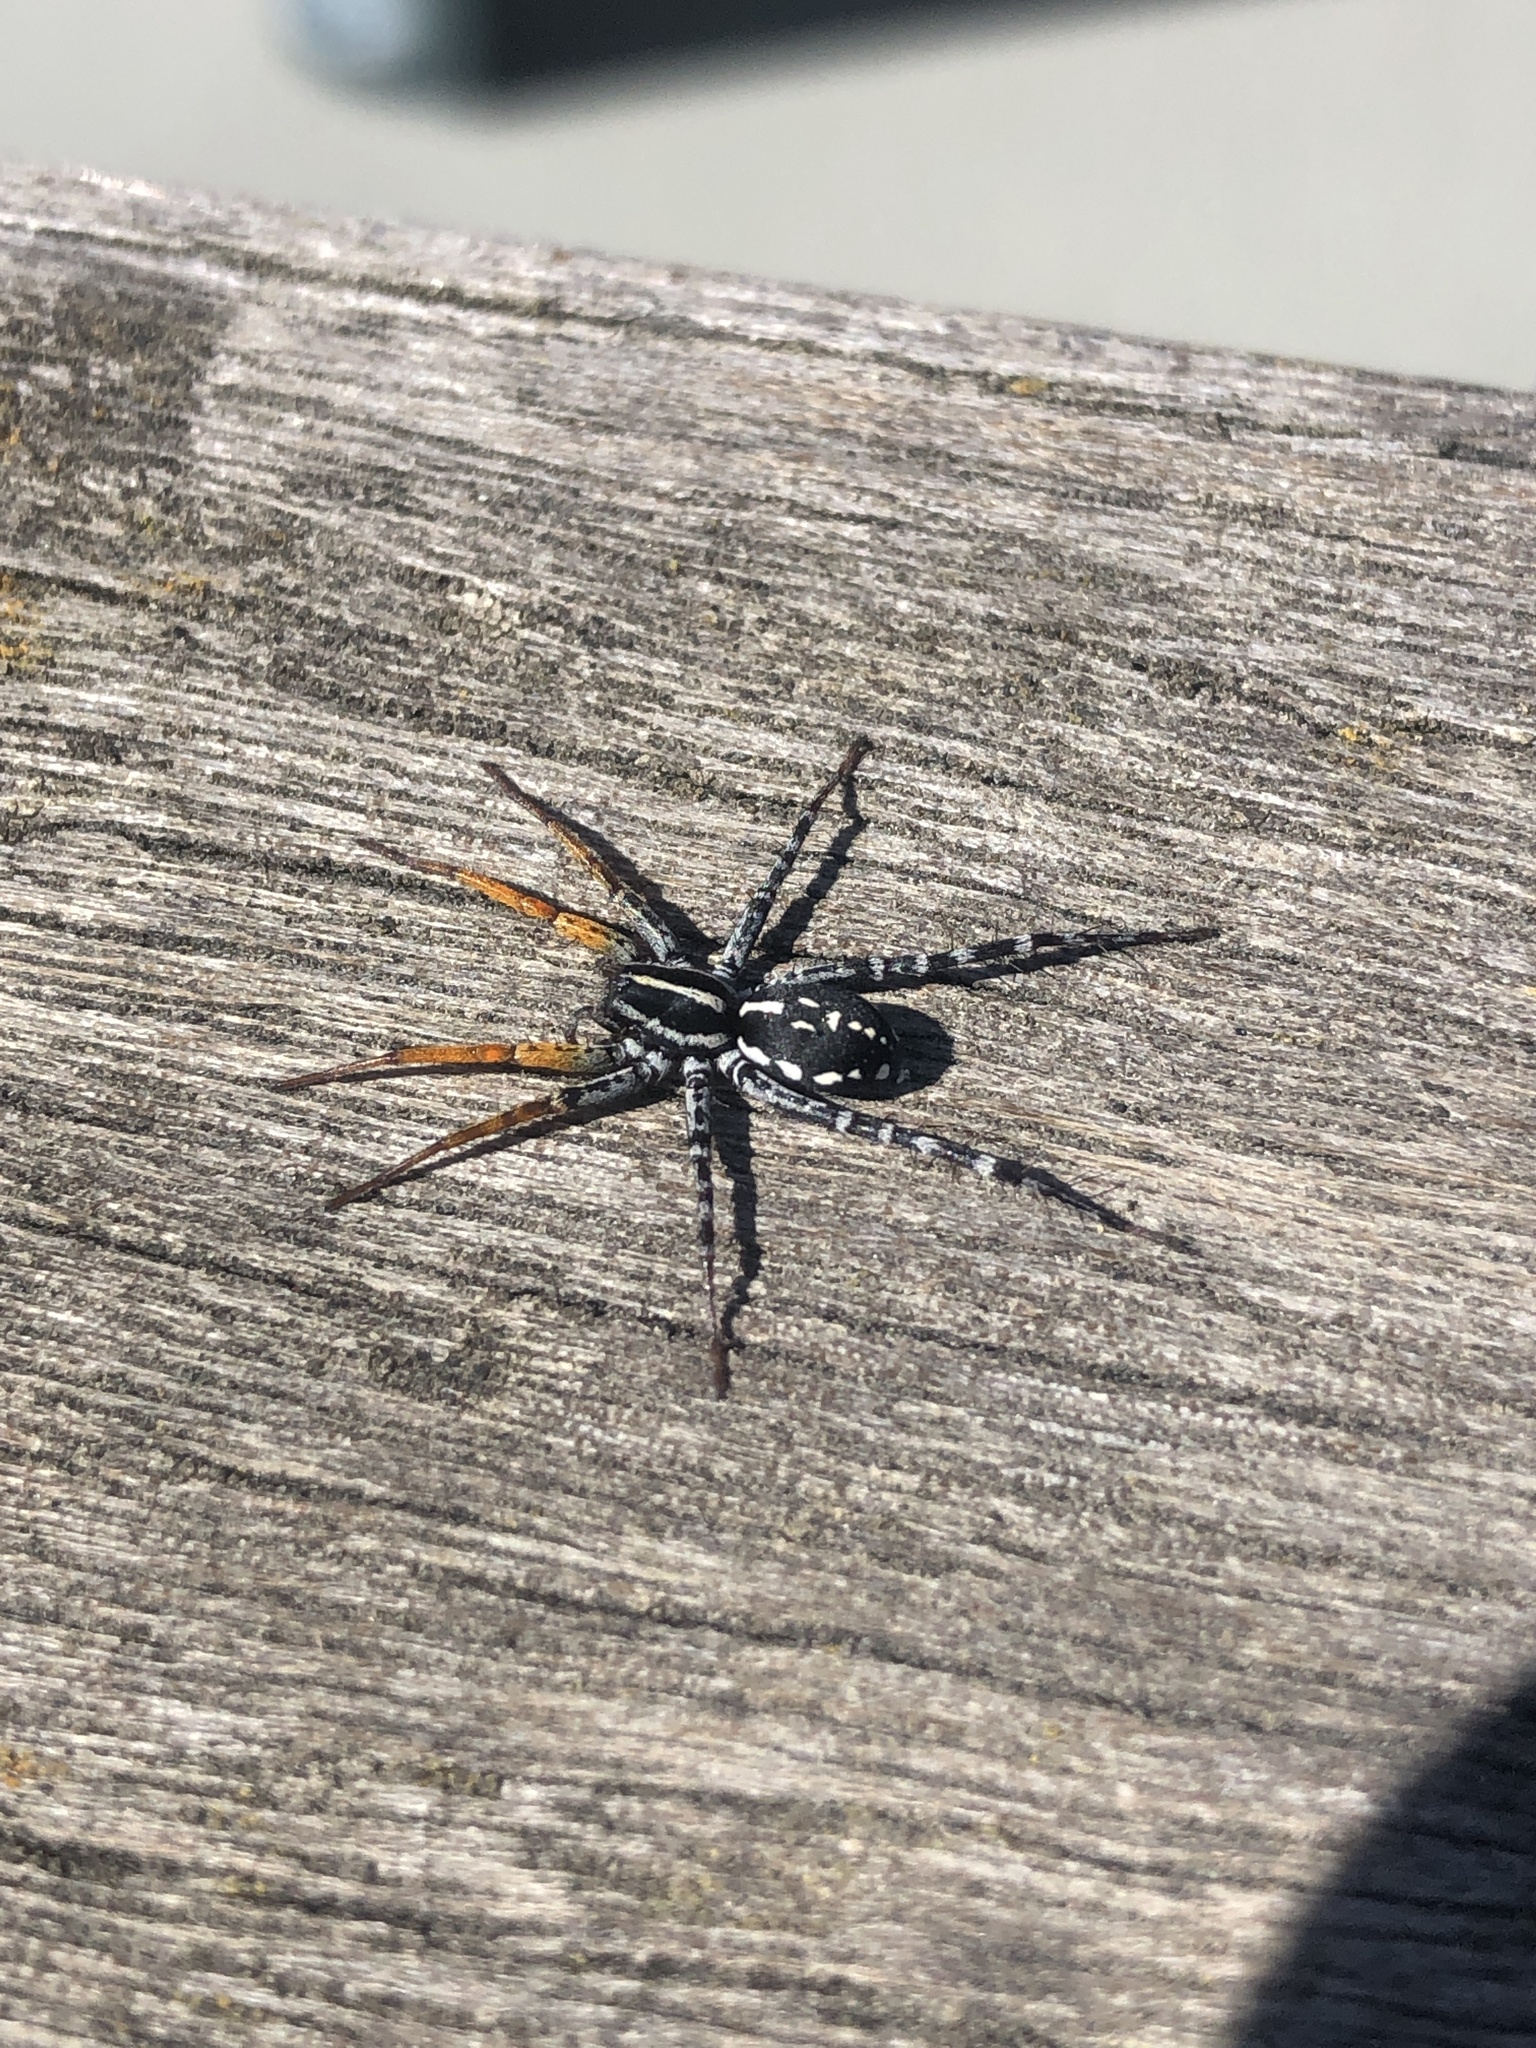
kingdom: Animalia
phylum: Arthropoda
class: Arachnida
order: Araneae
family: Corinnidae
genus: Nyssus
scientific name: Nyssus coloripes
